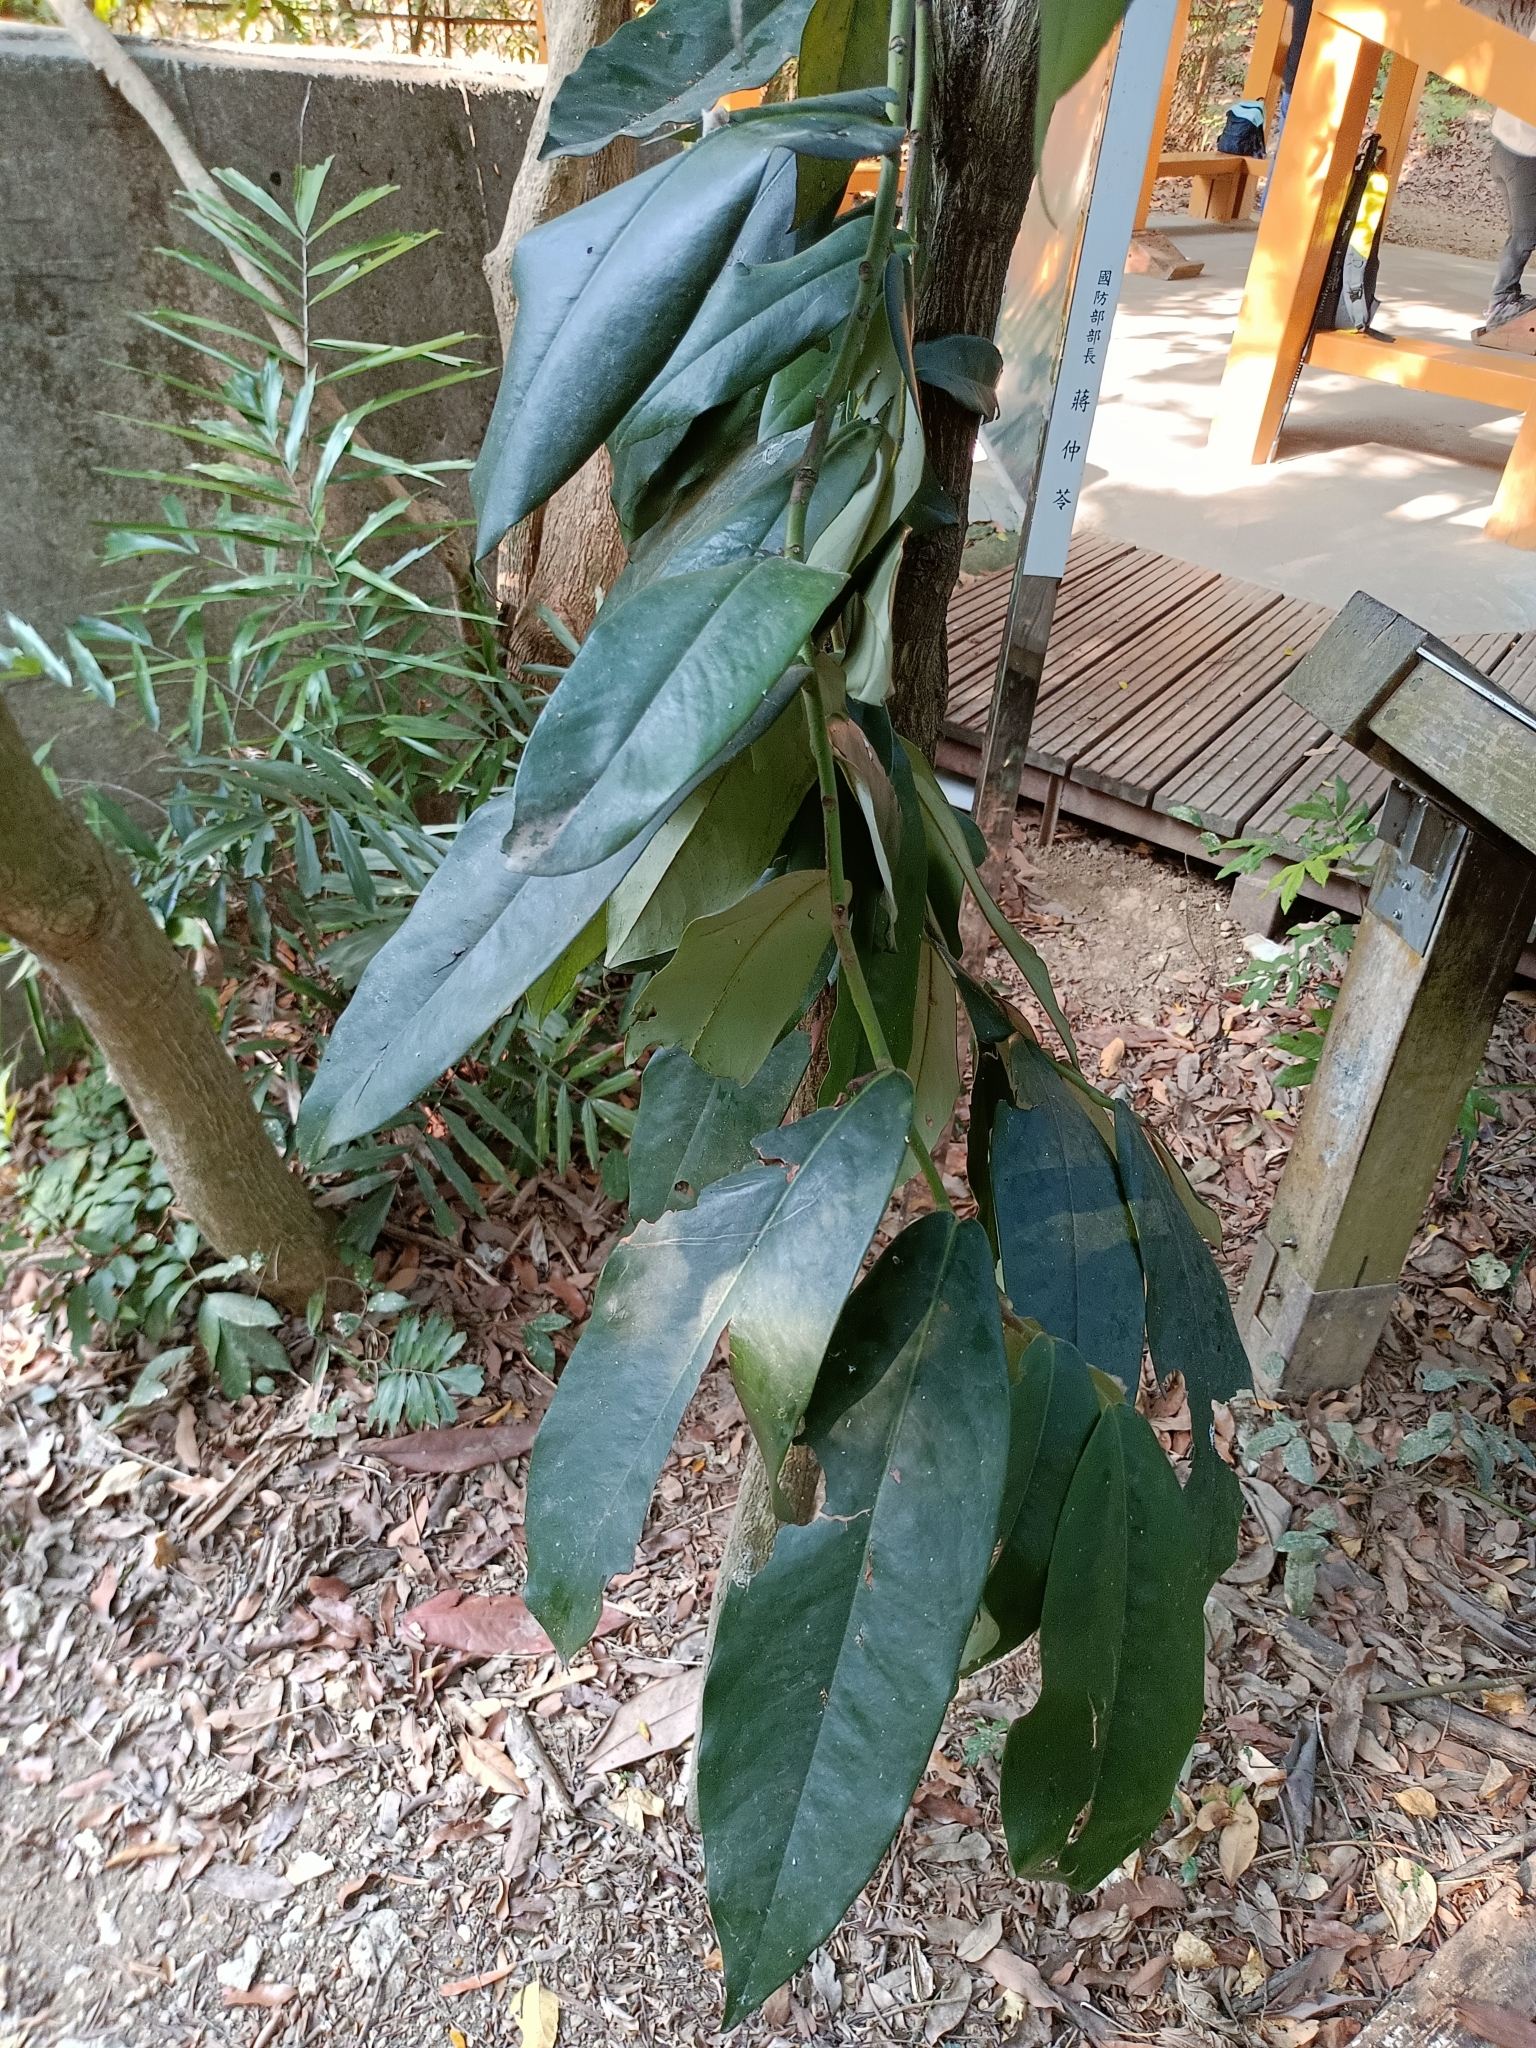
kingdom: Plantae
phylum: Tracheophyta
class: Magnoliopsida
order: Ericales
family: Ebenaceae
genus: Diospyros
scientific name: Diospyros blancoi
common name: Mabola-tree
